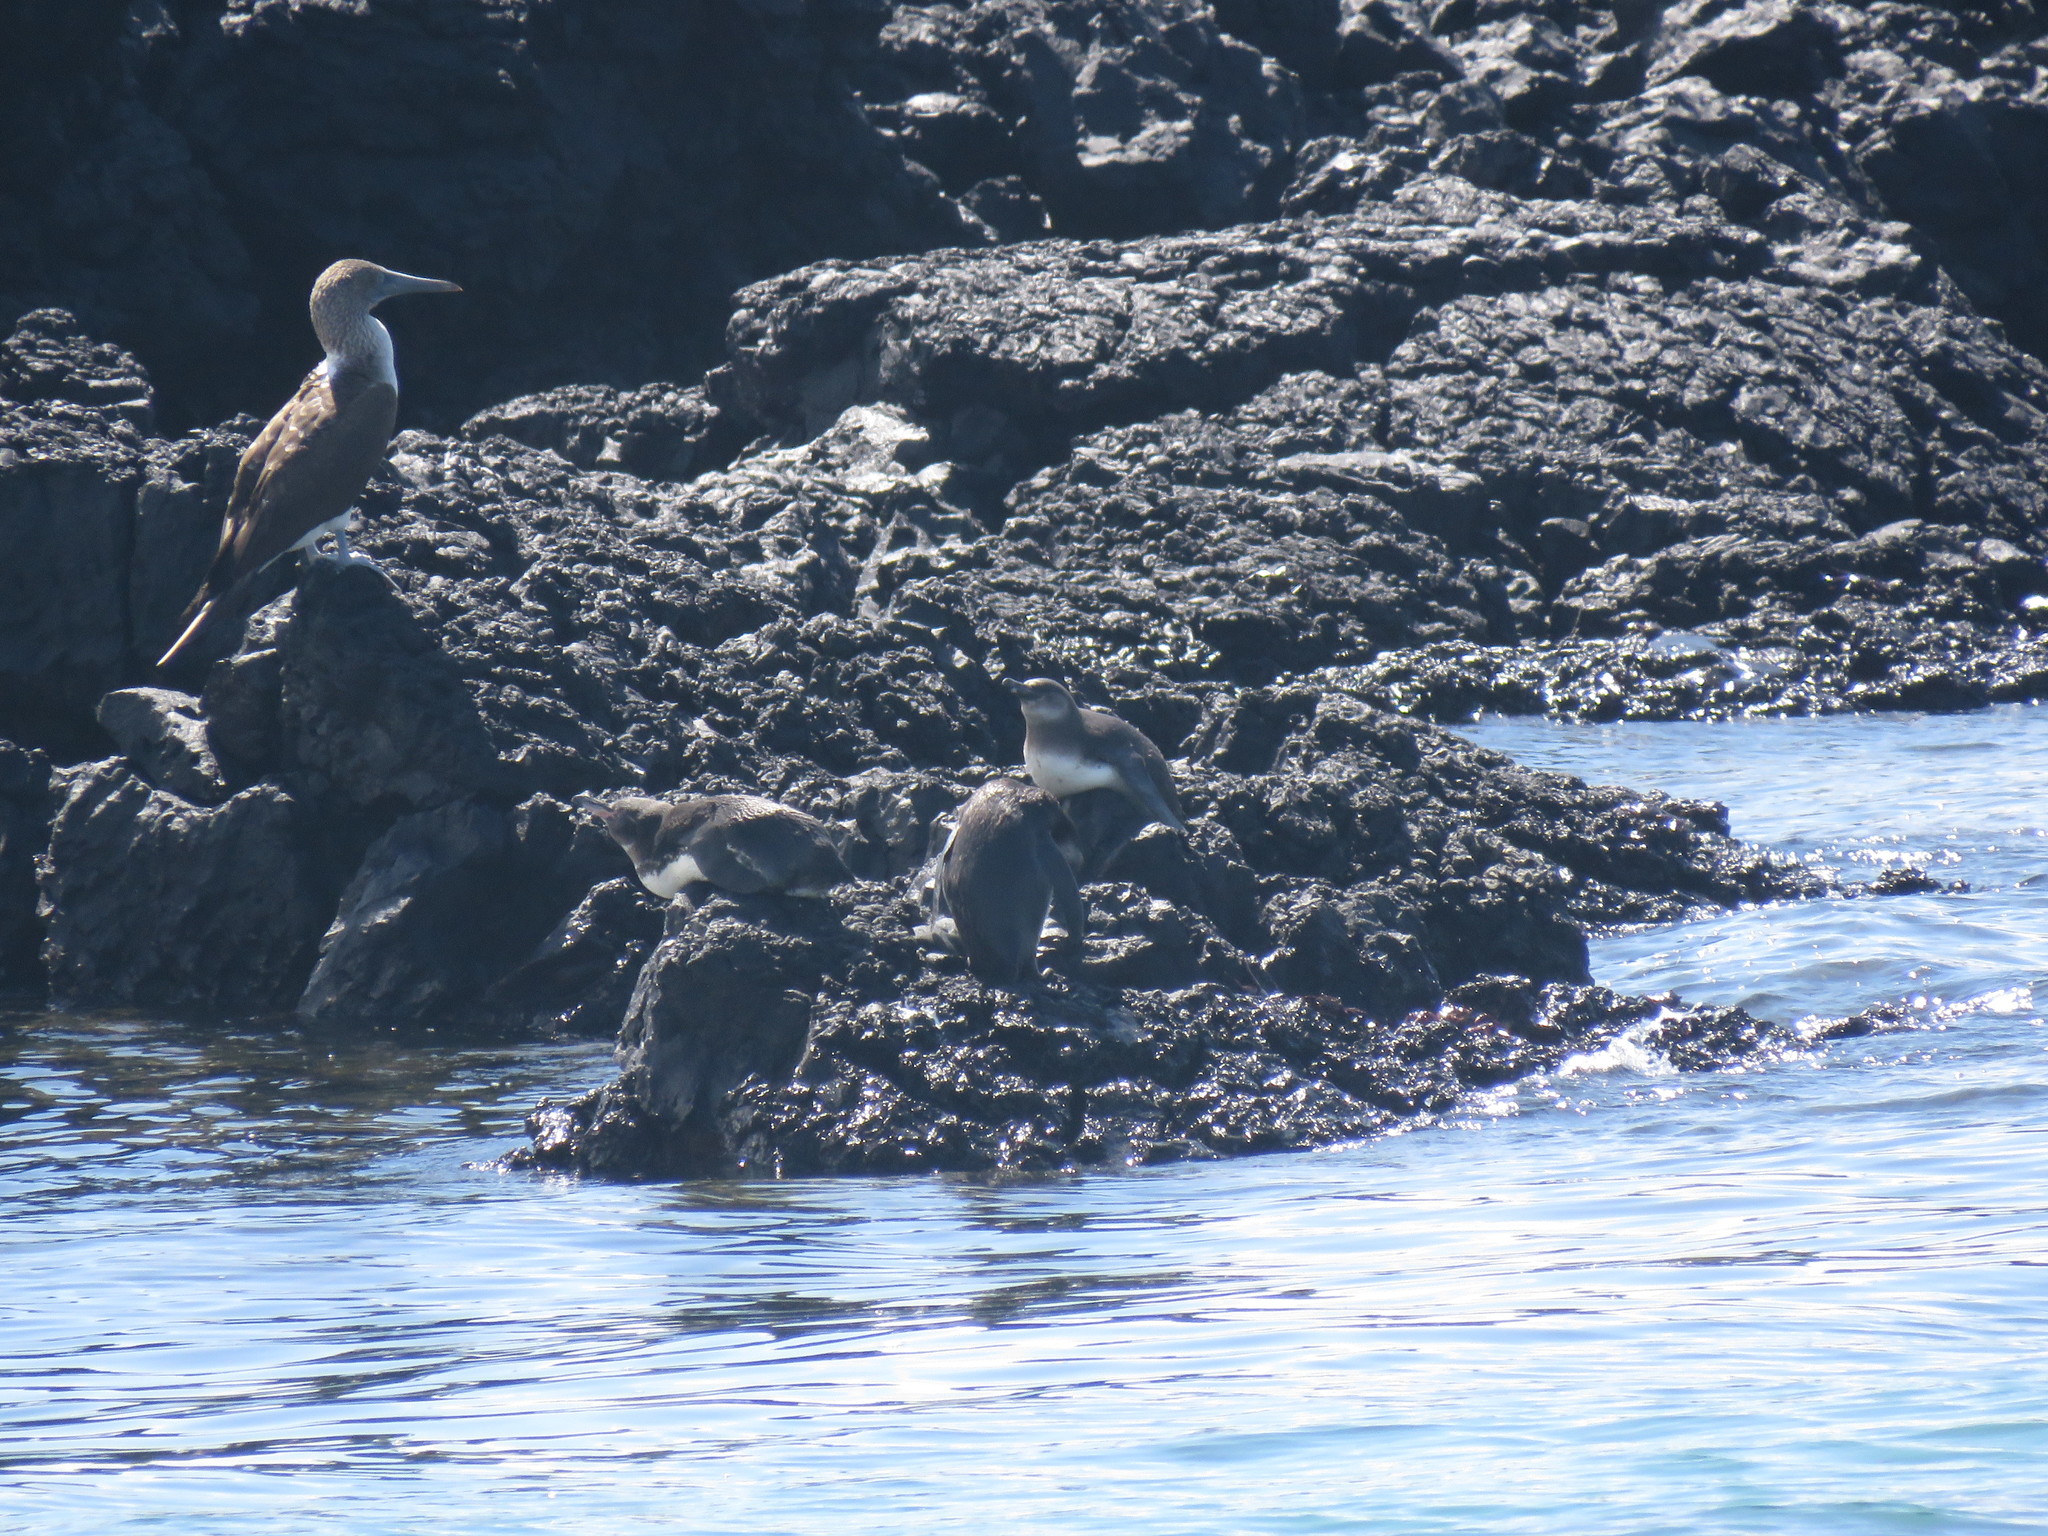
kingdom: Animalia
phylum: Chordata
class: Aves
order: Suliformes
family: Sulidae
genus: Sula
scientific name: Sula nebouxii
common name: Blue-footed booby
